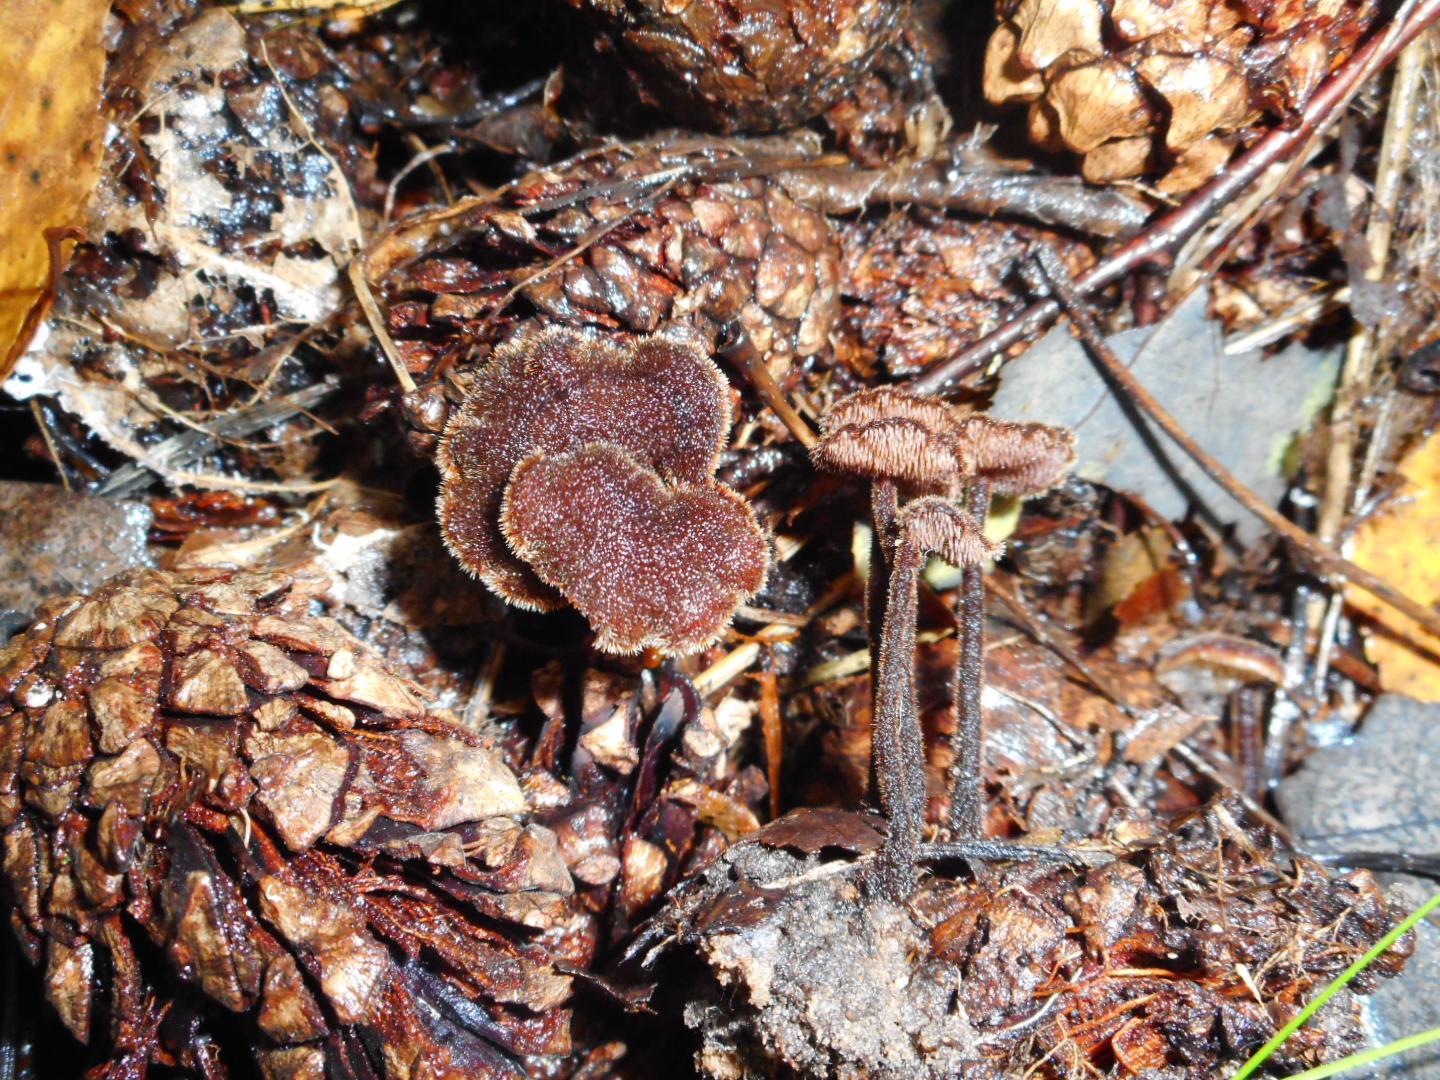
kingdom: Fungi
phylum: Basidiomycota
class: Agaricomycetes
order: Russulales
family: Auriscalpiaceae
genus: Auriscalpium
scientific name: Auriscalpium vulgare
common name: Earpick fungus
